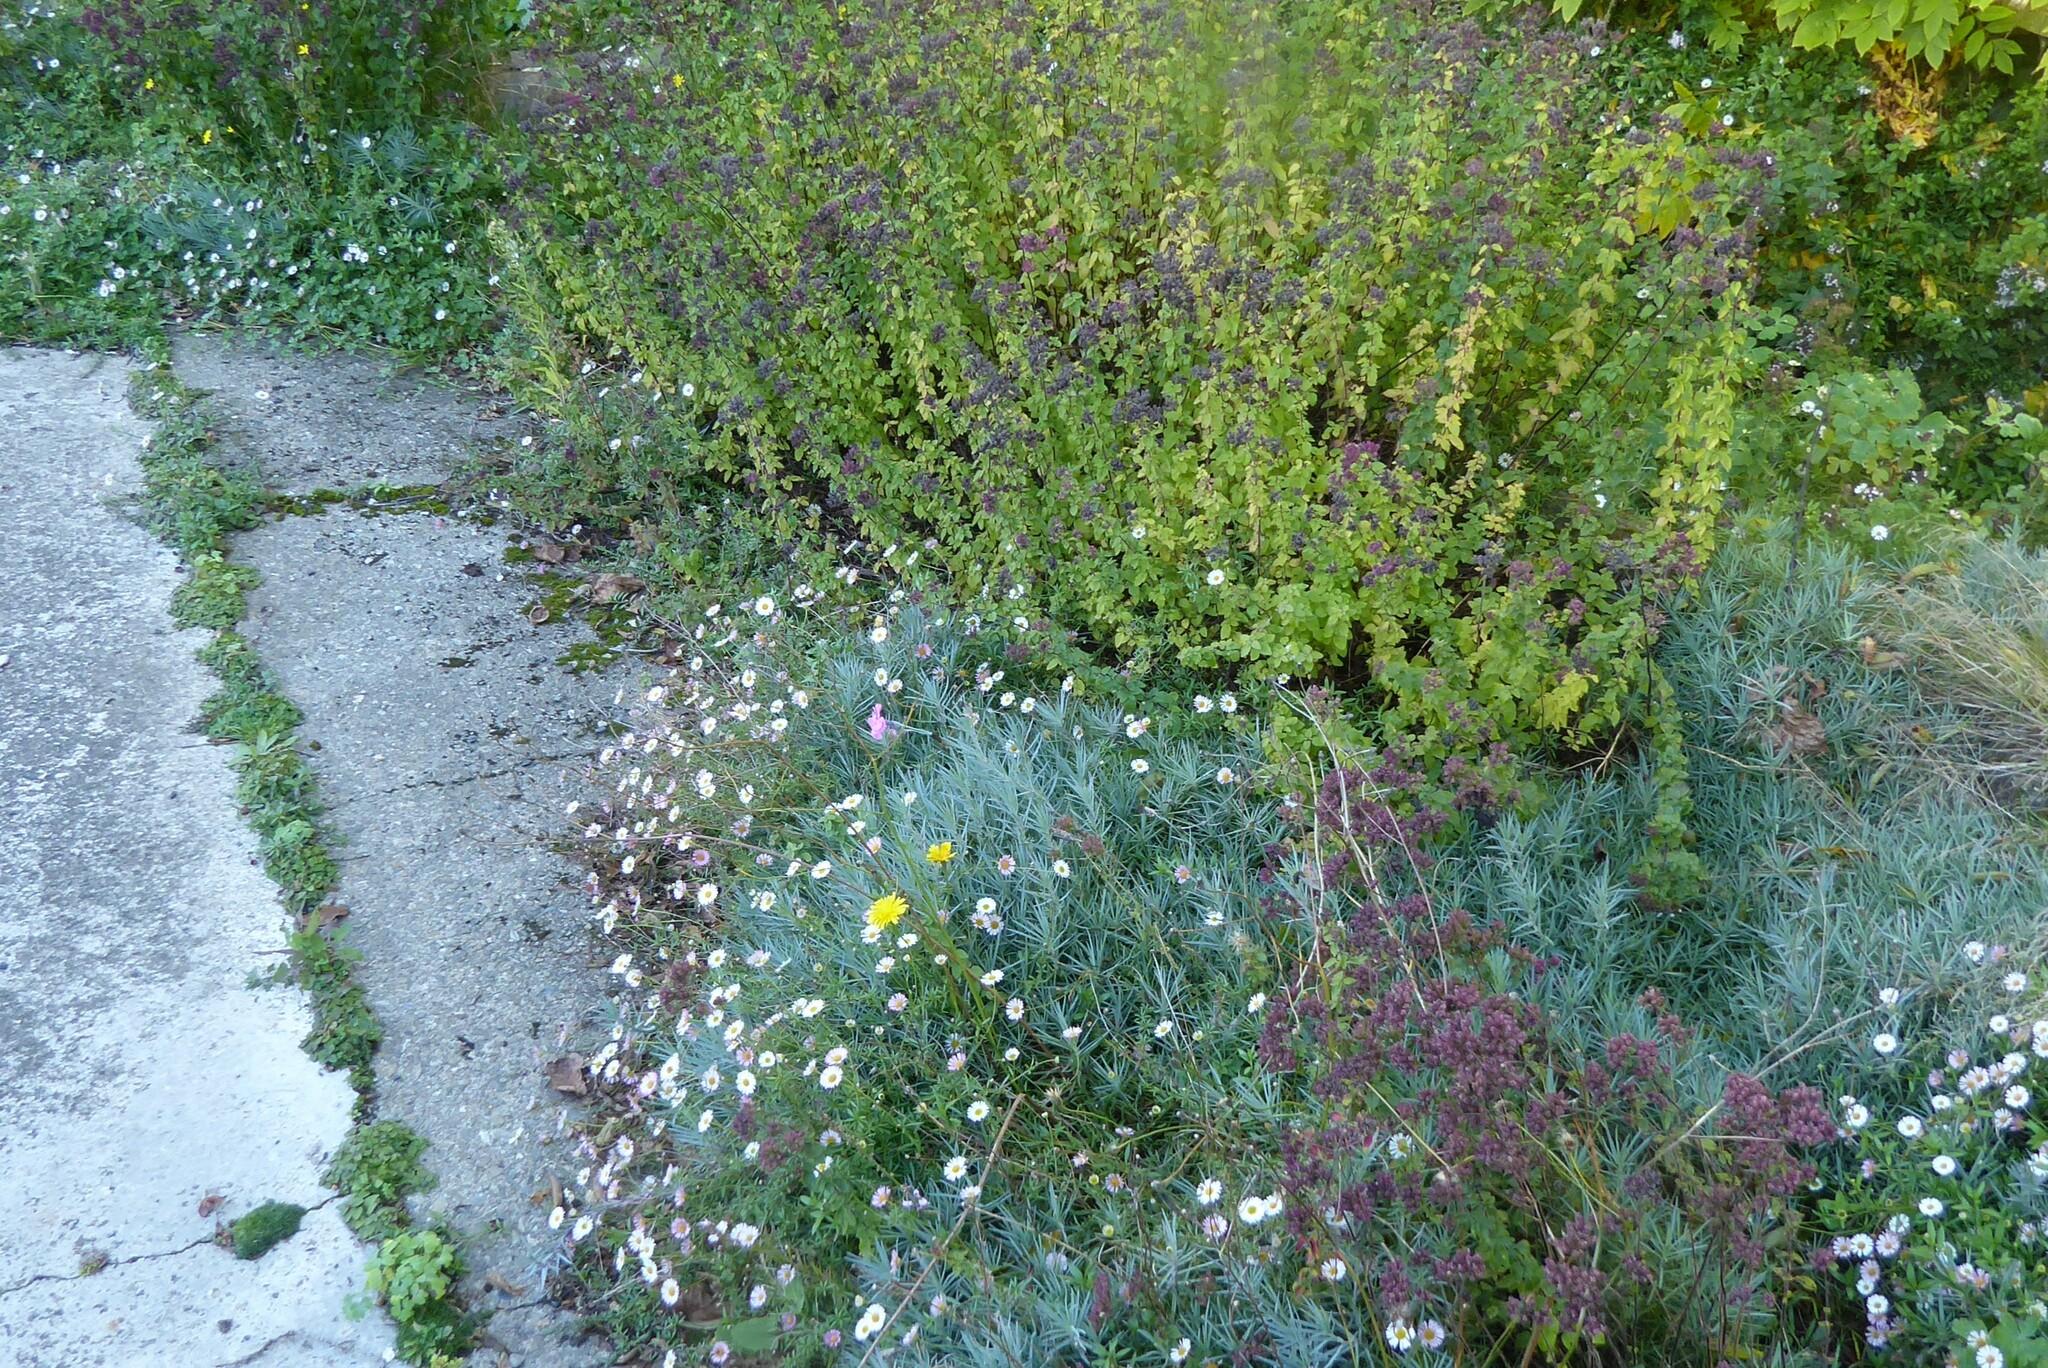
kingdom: Animalia
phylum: Chordata
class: Amphibia
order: Anura
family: Pelodryadidae
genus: Litoria
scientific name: Litoria ewingii
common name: Southern brown tree frog
